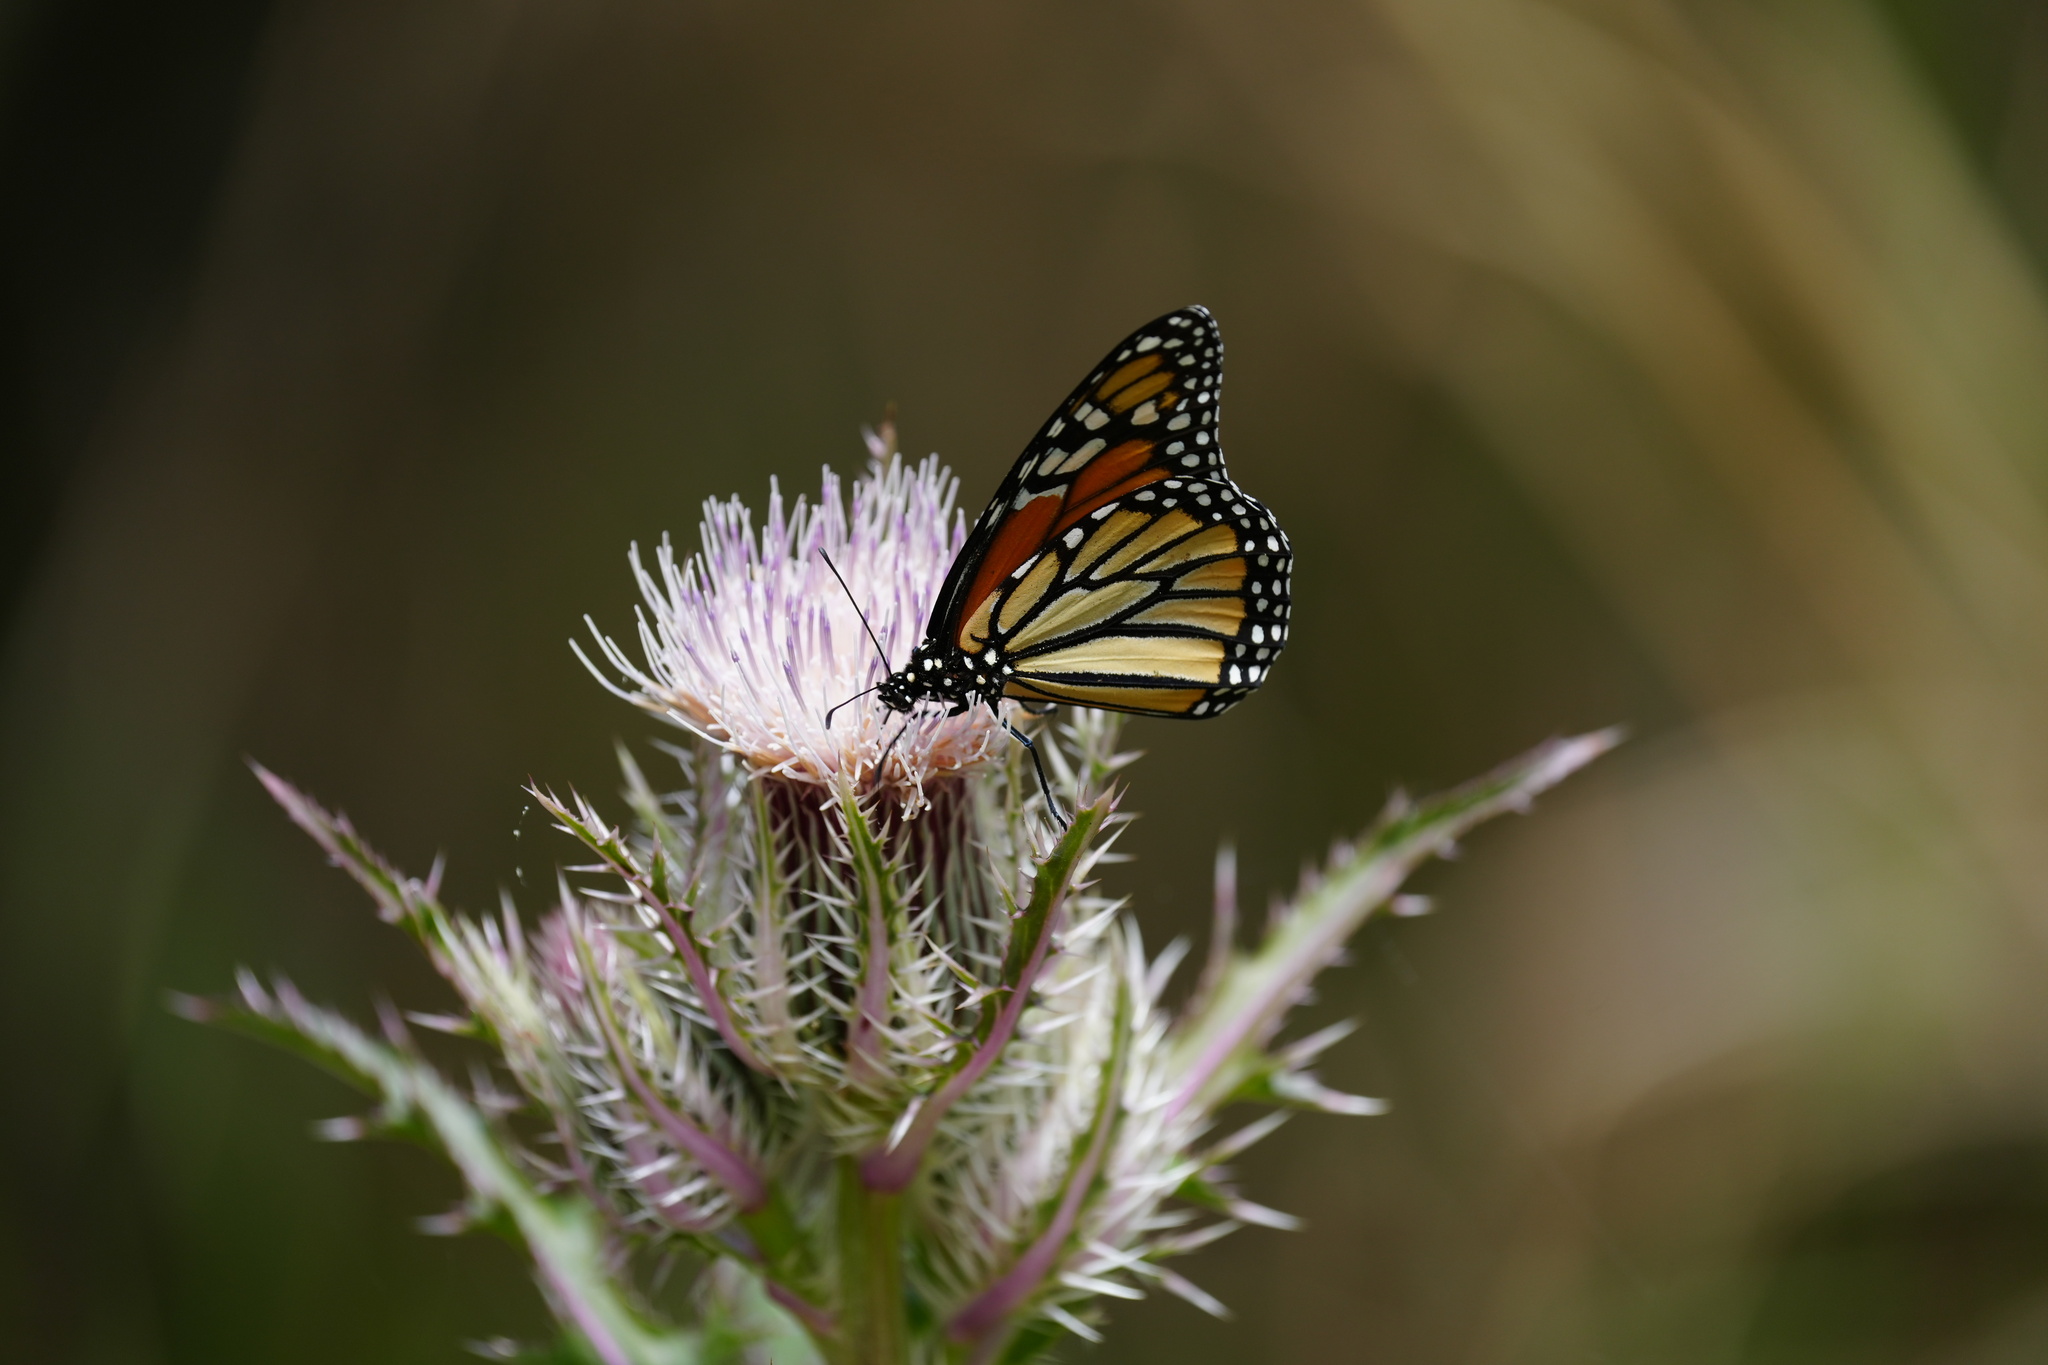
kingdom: Animalia
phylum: Arthropoda
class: Insecta
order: Lepidoptera
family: Nymphalidae
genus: Danaus
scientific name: Danaus plexippus
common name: Monarch
